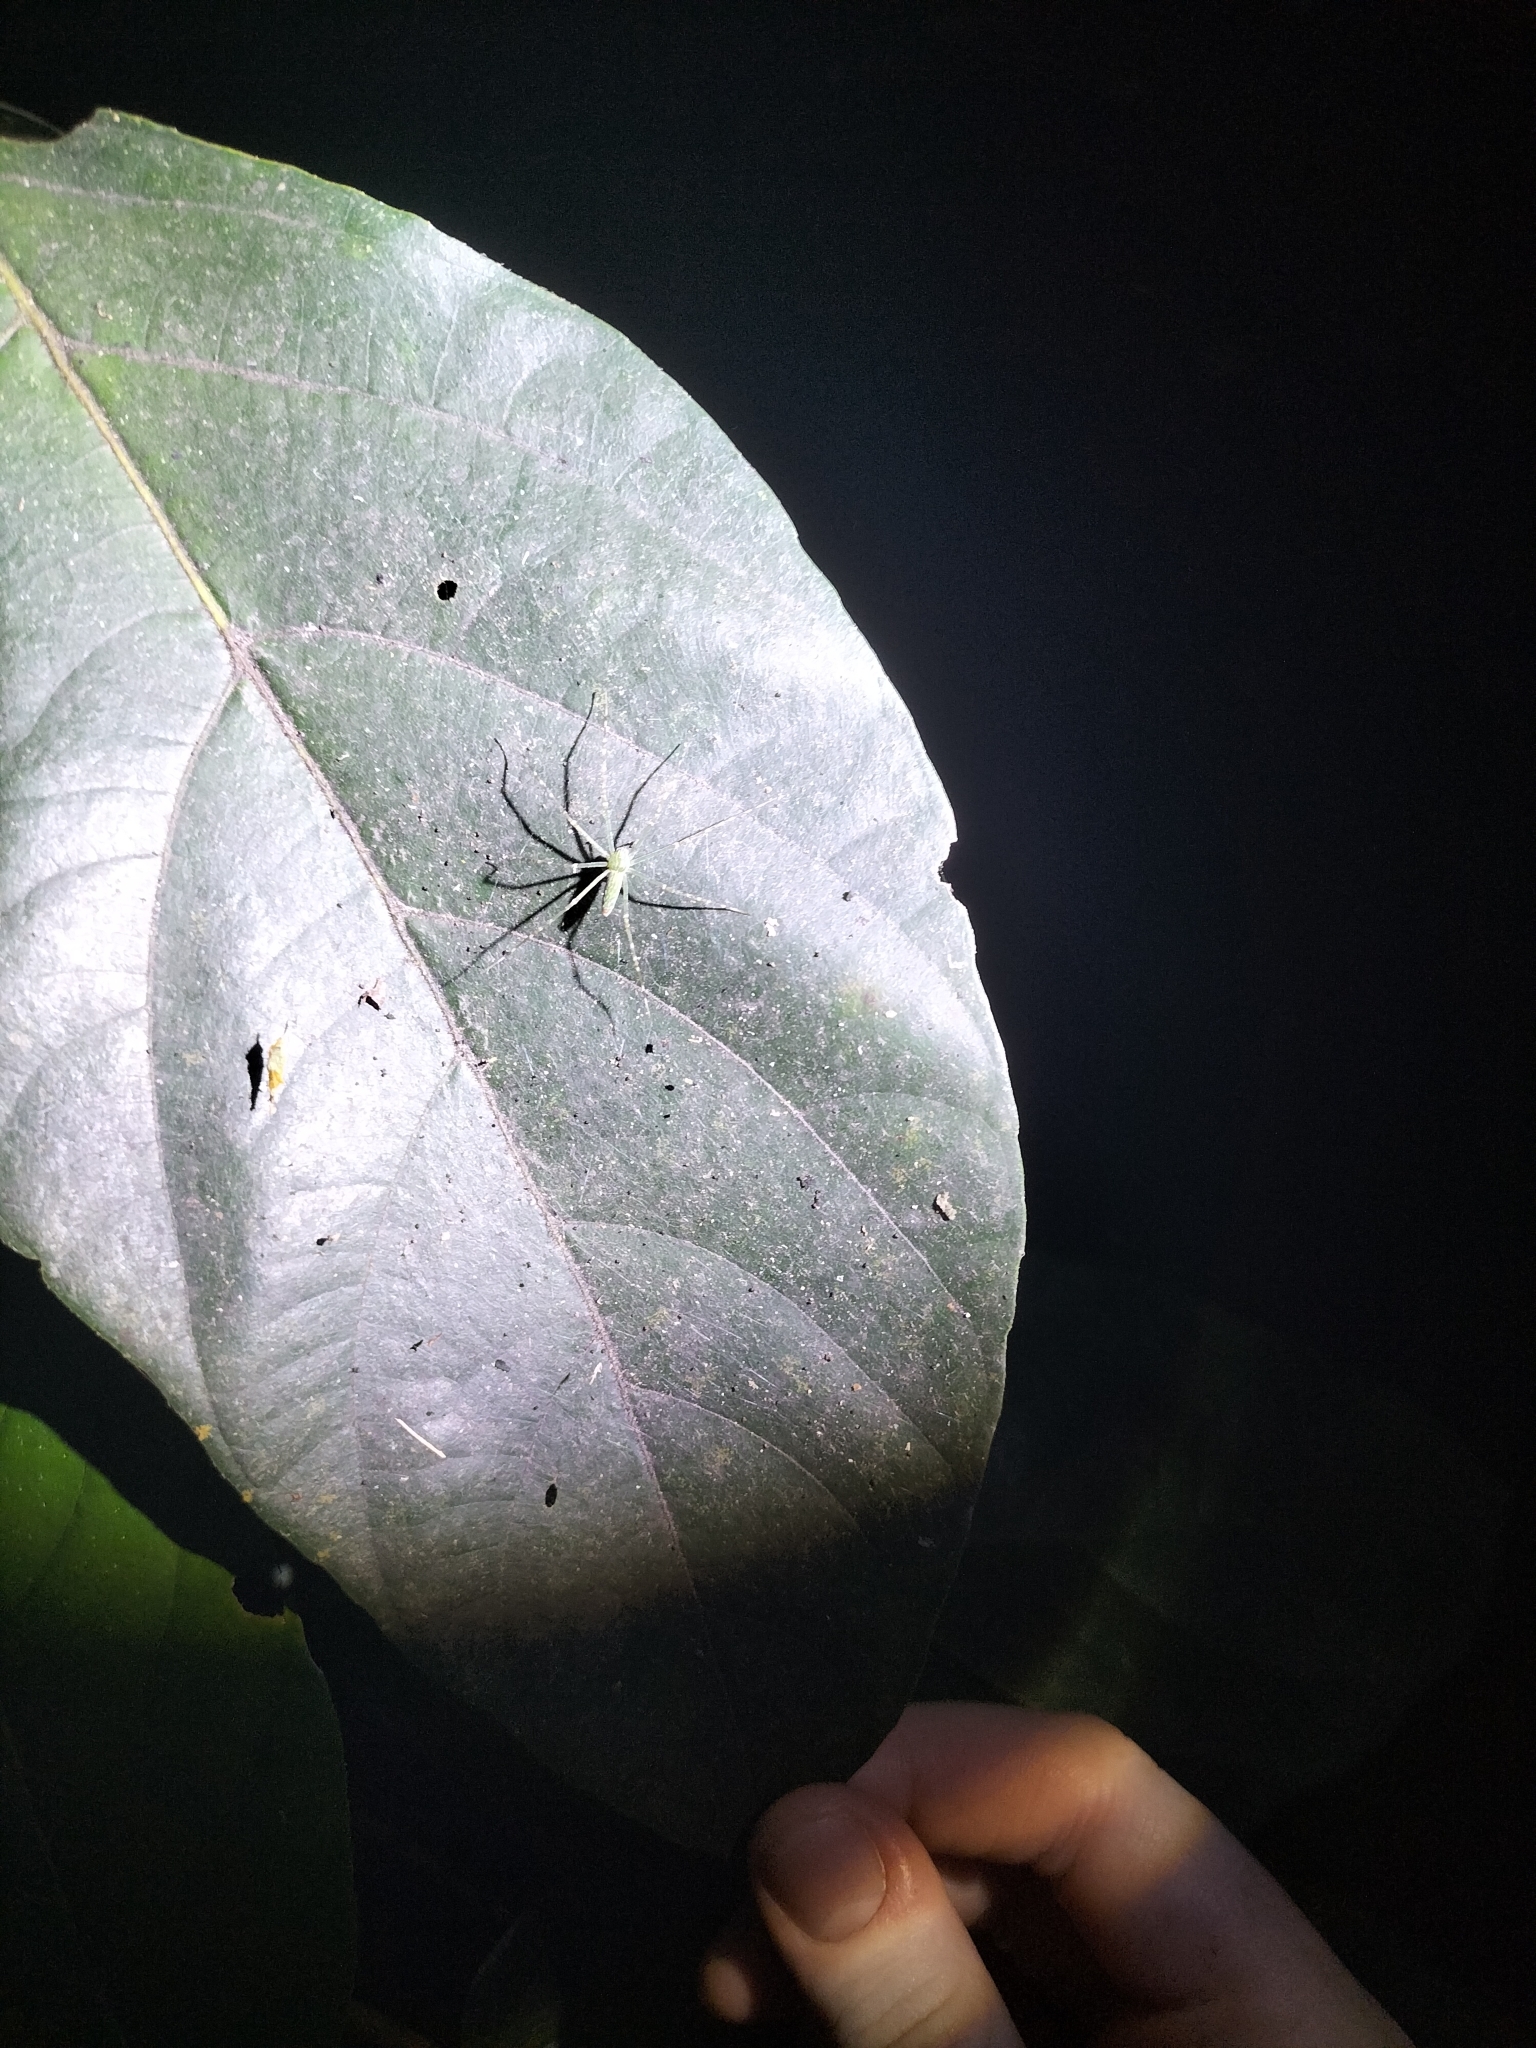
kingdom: Animalia
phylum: Arthropoda
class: Arachnida
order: Araneae
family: Pisauridae
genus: Hygropoda
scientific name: Hygropoda lineata
